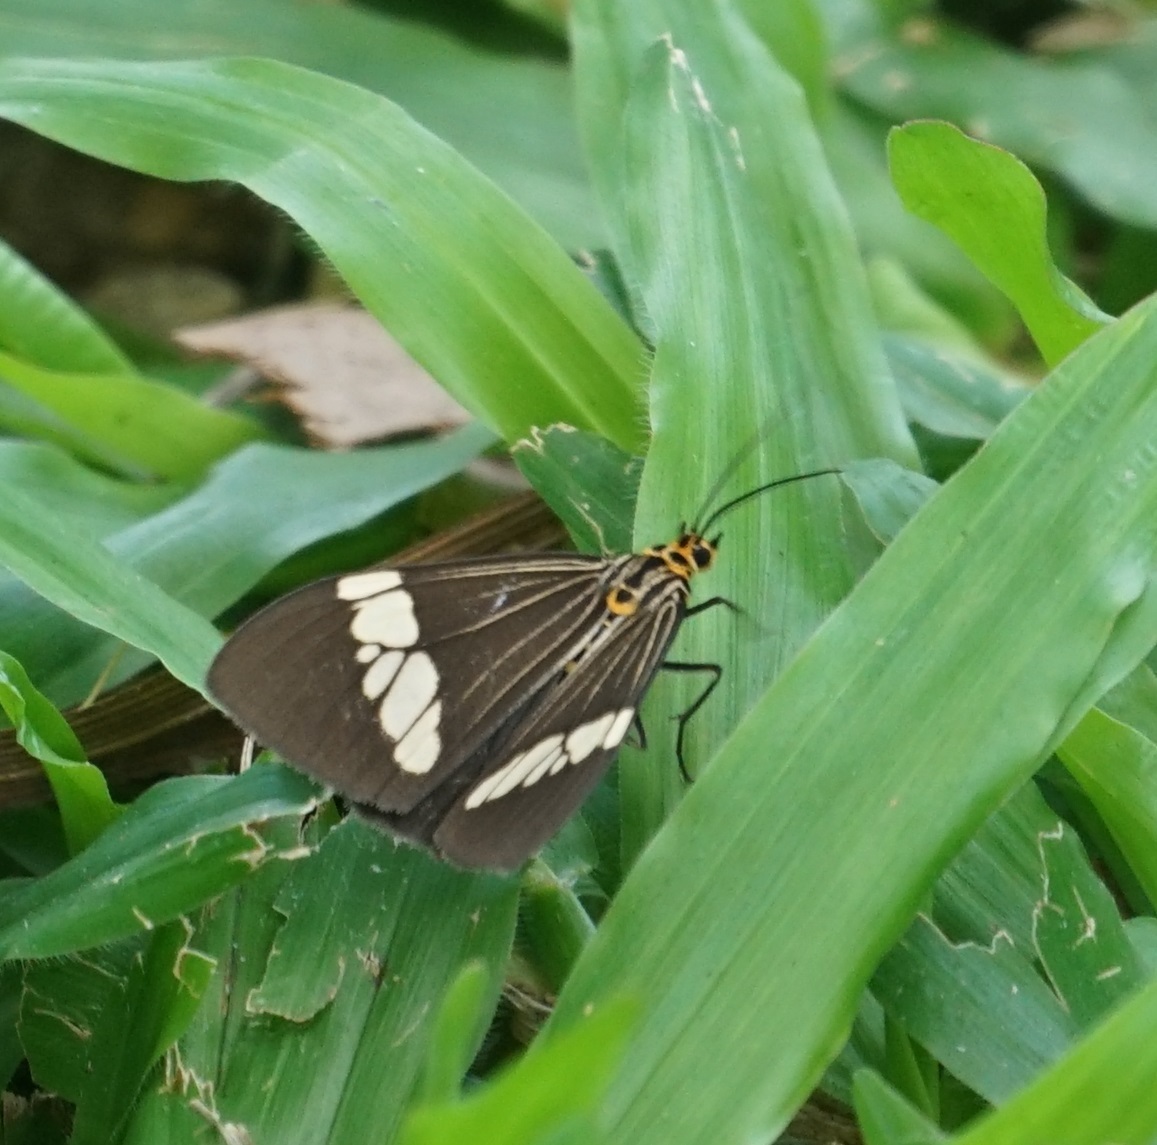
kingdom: Animalia
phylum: Arthropoda
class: Insecta
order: Lepidoptera
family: Erebidae
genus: Nyctemera
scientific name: Nyctemera baulus
